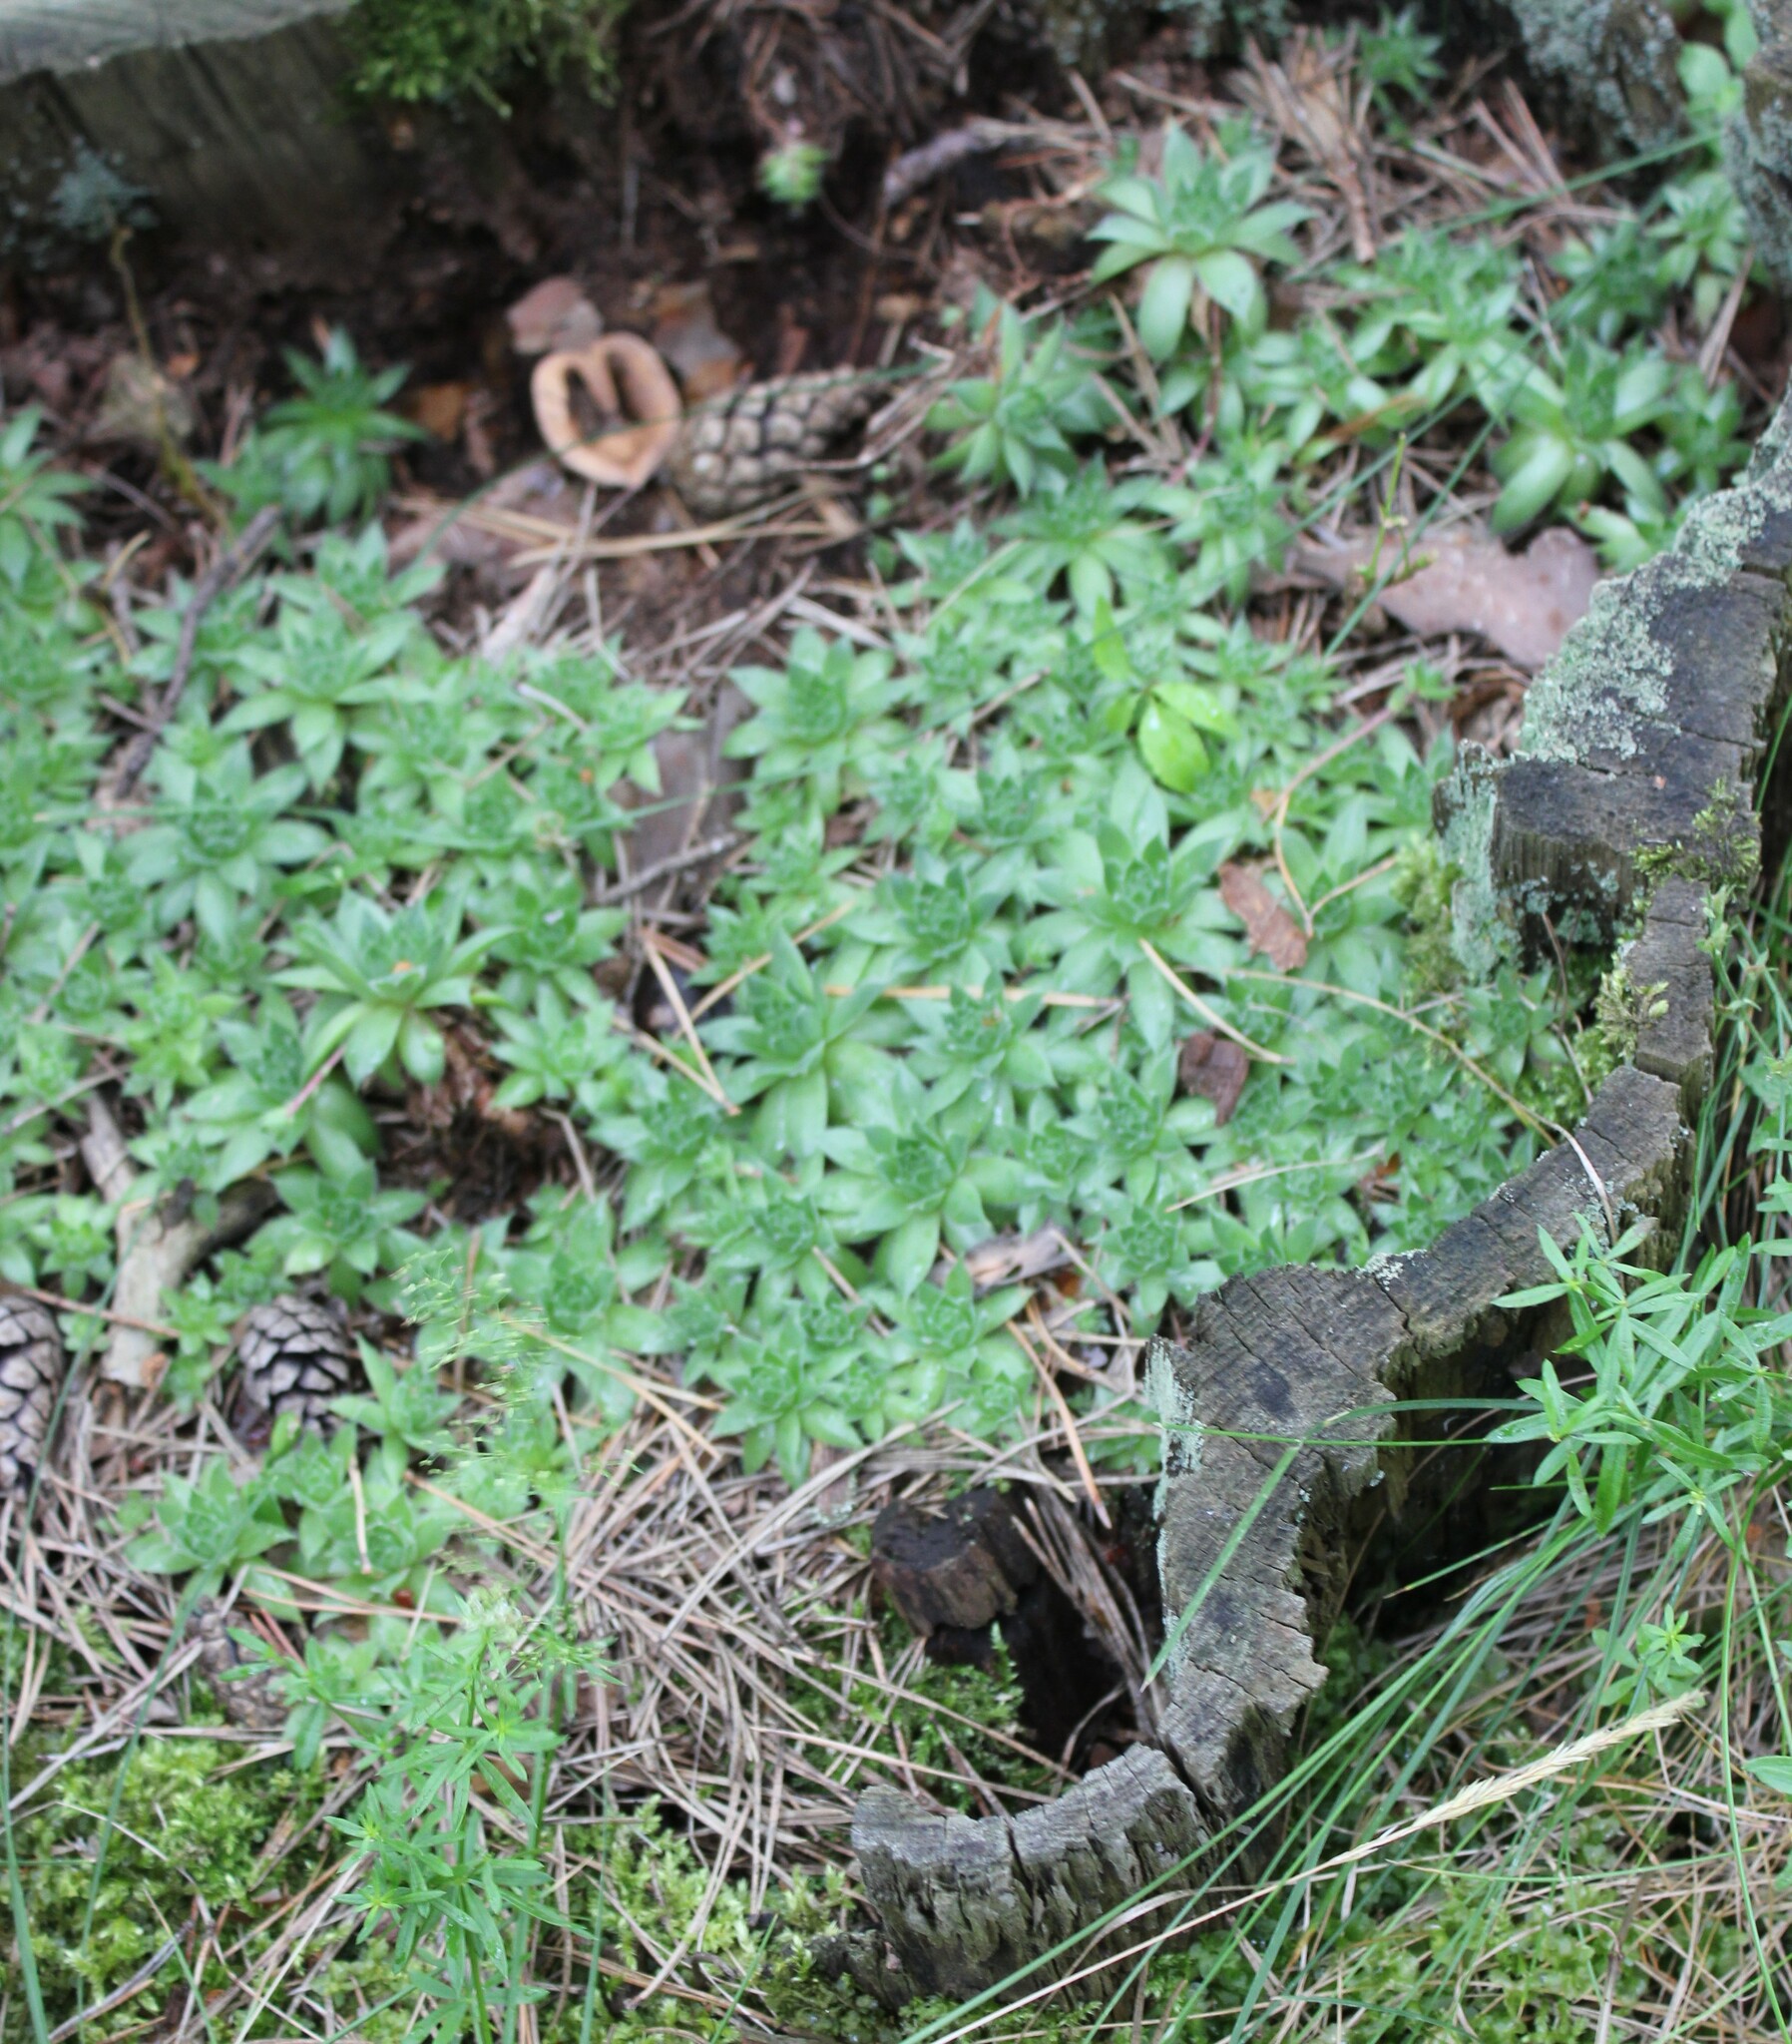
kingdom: Plantae
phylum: Tracheophyta
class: Magnoliopsida
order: Saxifragales
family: Crassulaceae
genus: Sempervivum
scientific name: Sempervivum globiferum
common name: Rolling hen-and-chicks
